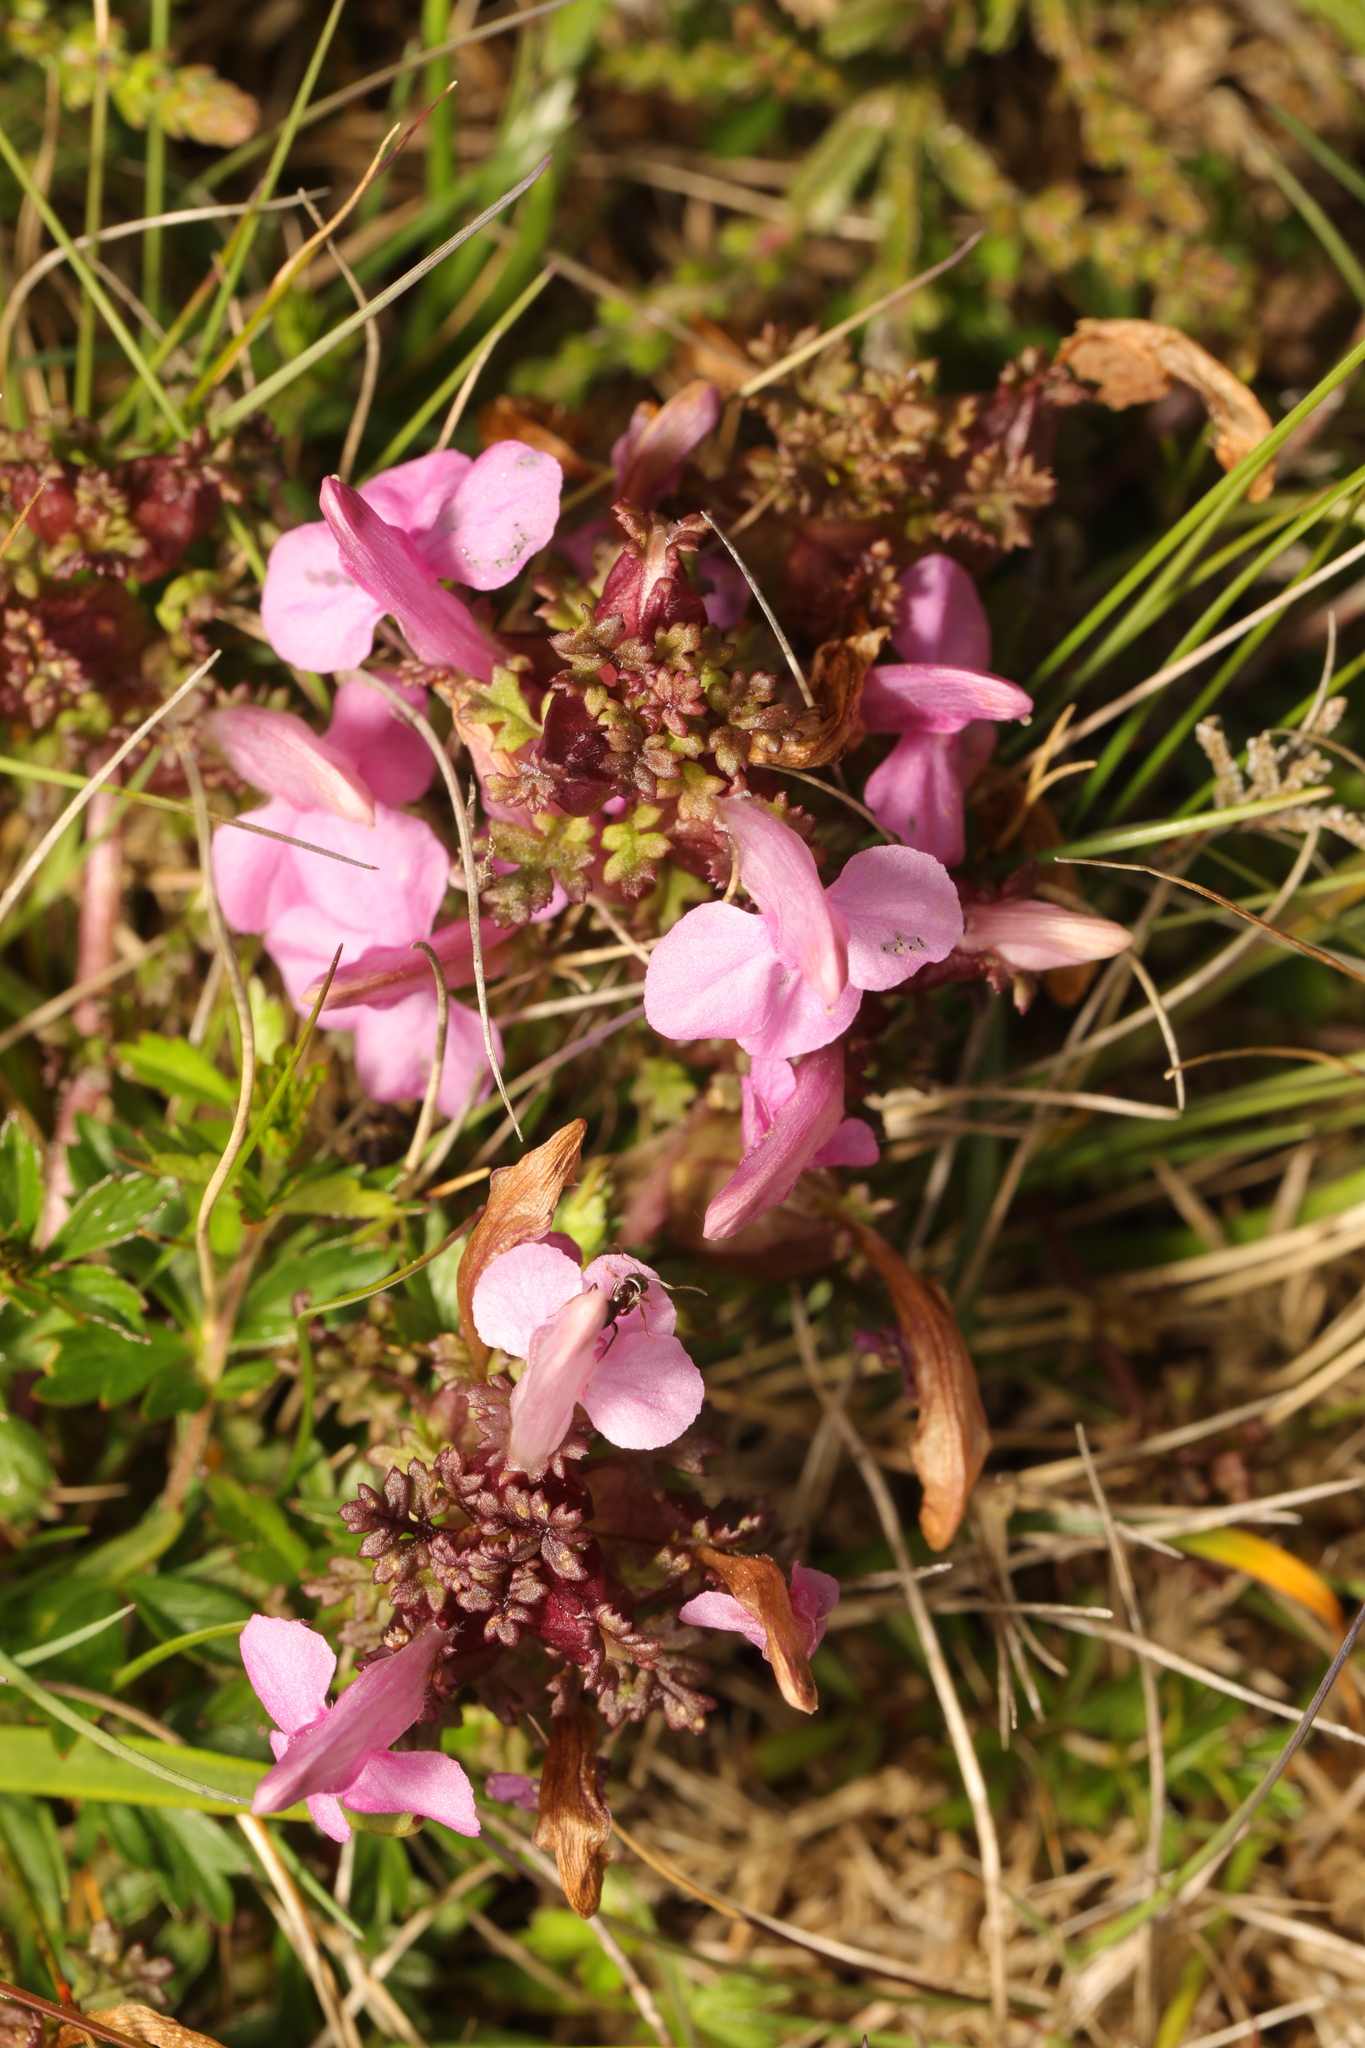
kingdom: Plantae
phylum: Tracheophyta
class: Magnoliopsida
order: Lamiales
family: Orobanchaceae
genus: Pedicularis
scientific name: Pedicularis sylvatica
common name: Lousewort
